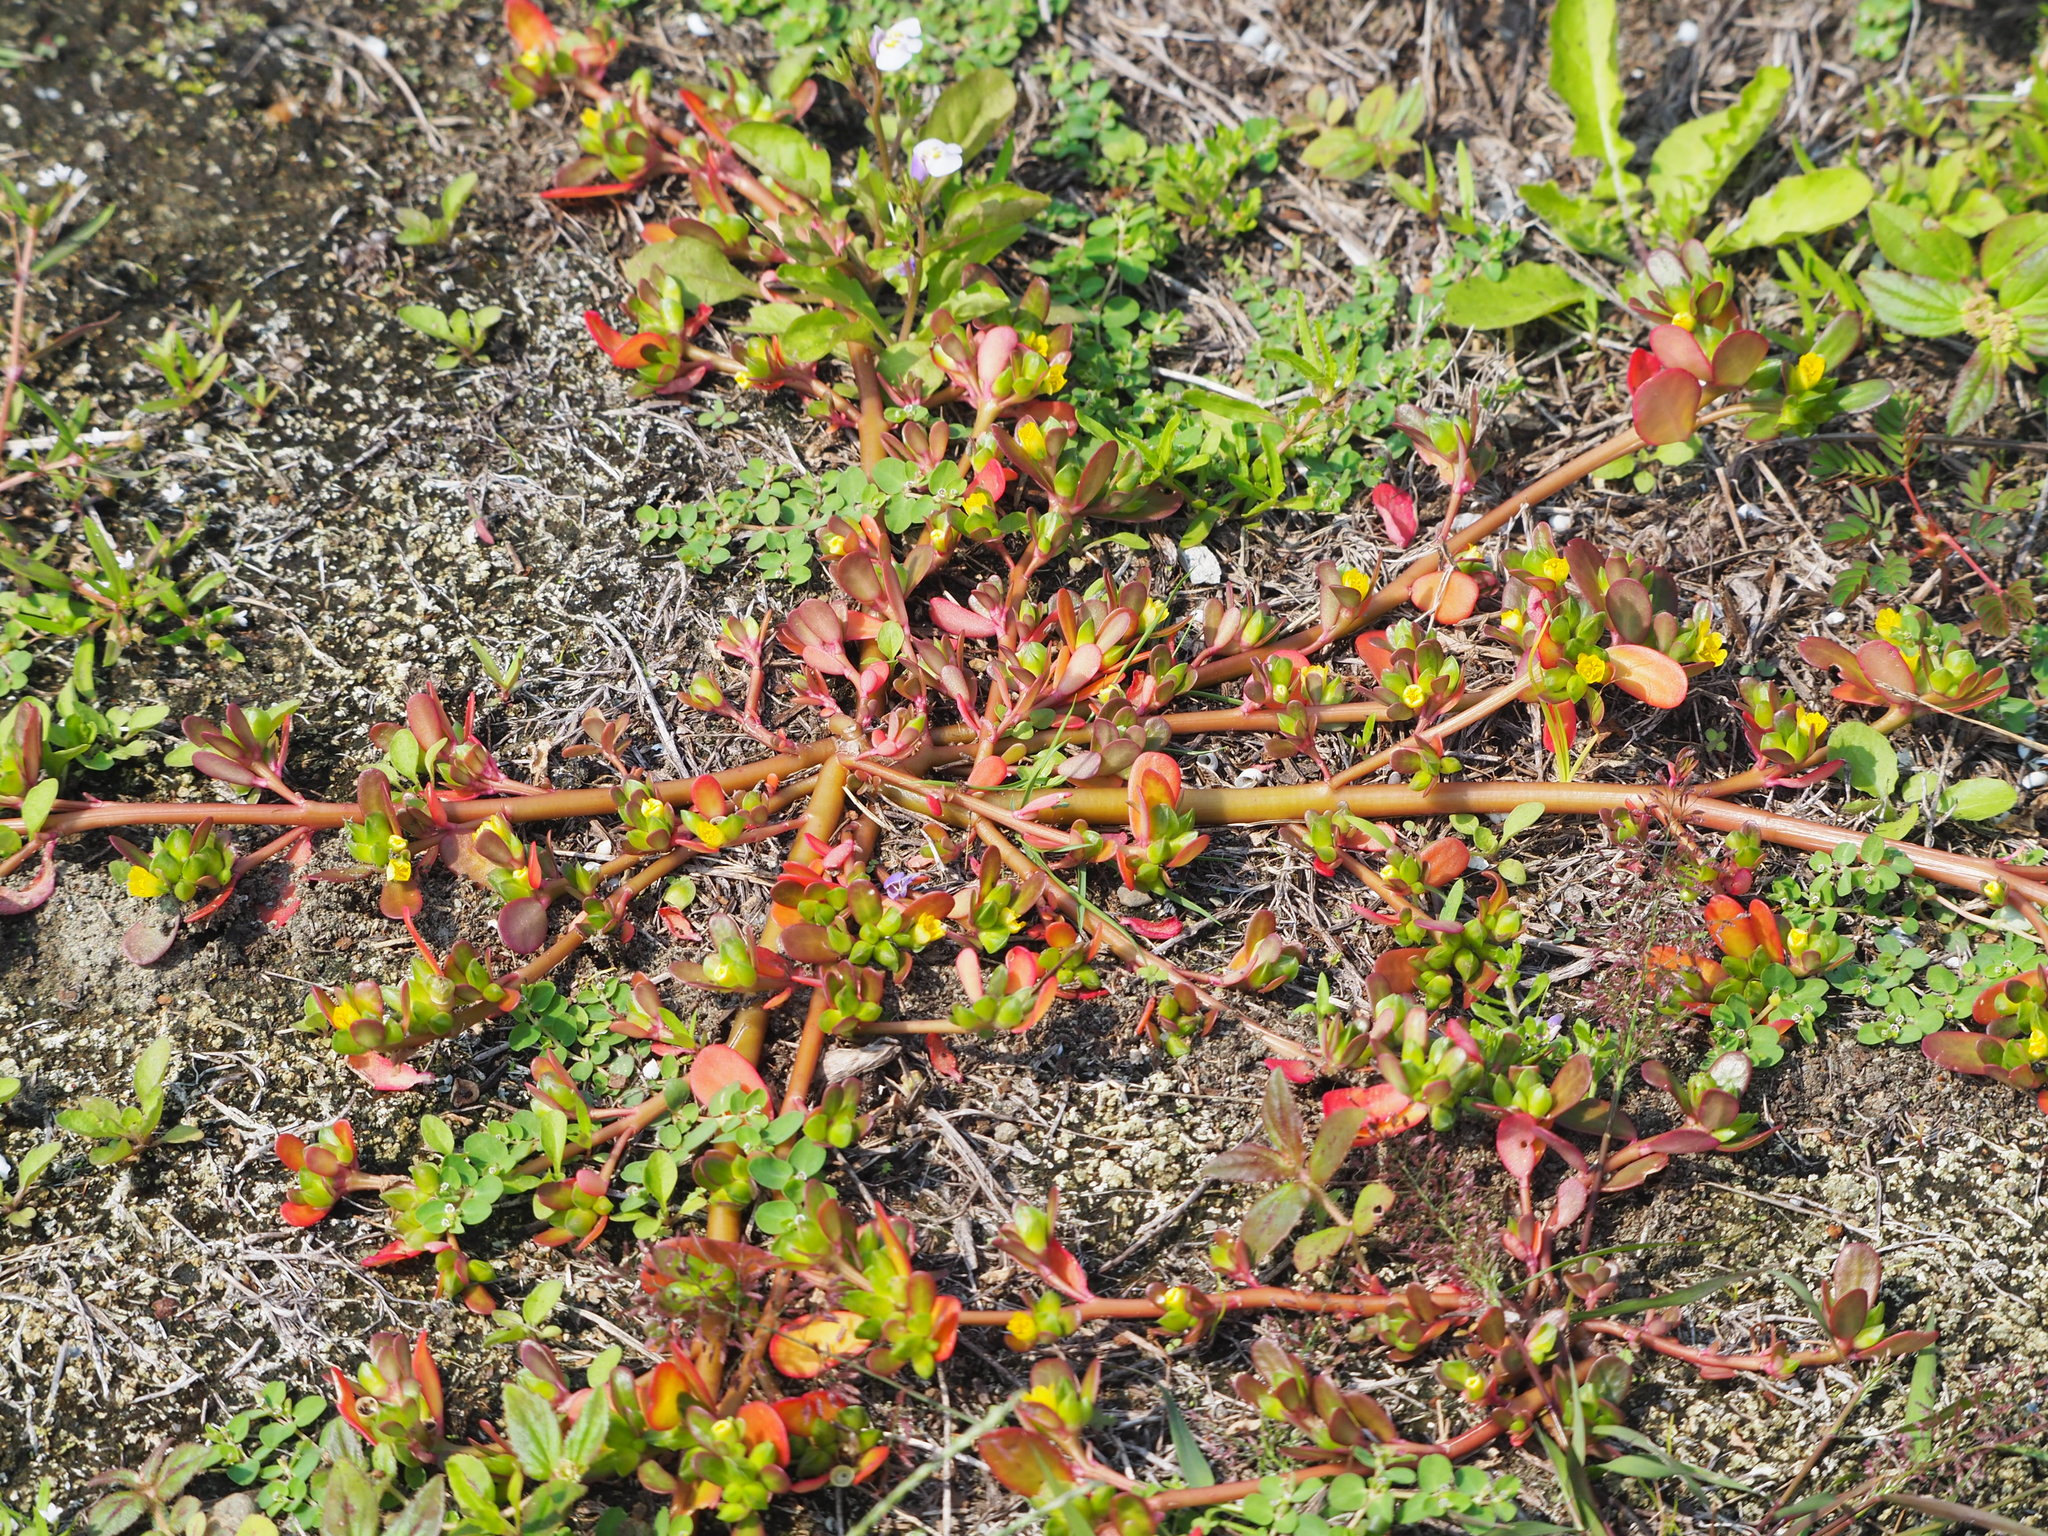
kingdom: Plantae
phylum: Tracheophyta
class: Magnoliopsida
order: Caryophyllales
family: Portulacaceae
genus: Portulaca
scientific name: Portulaca oleracea
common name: Common purslane
